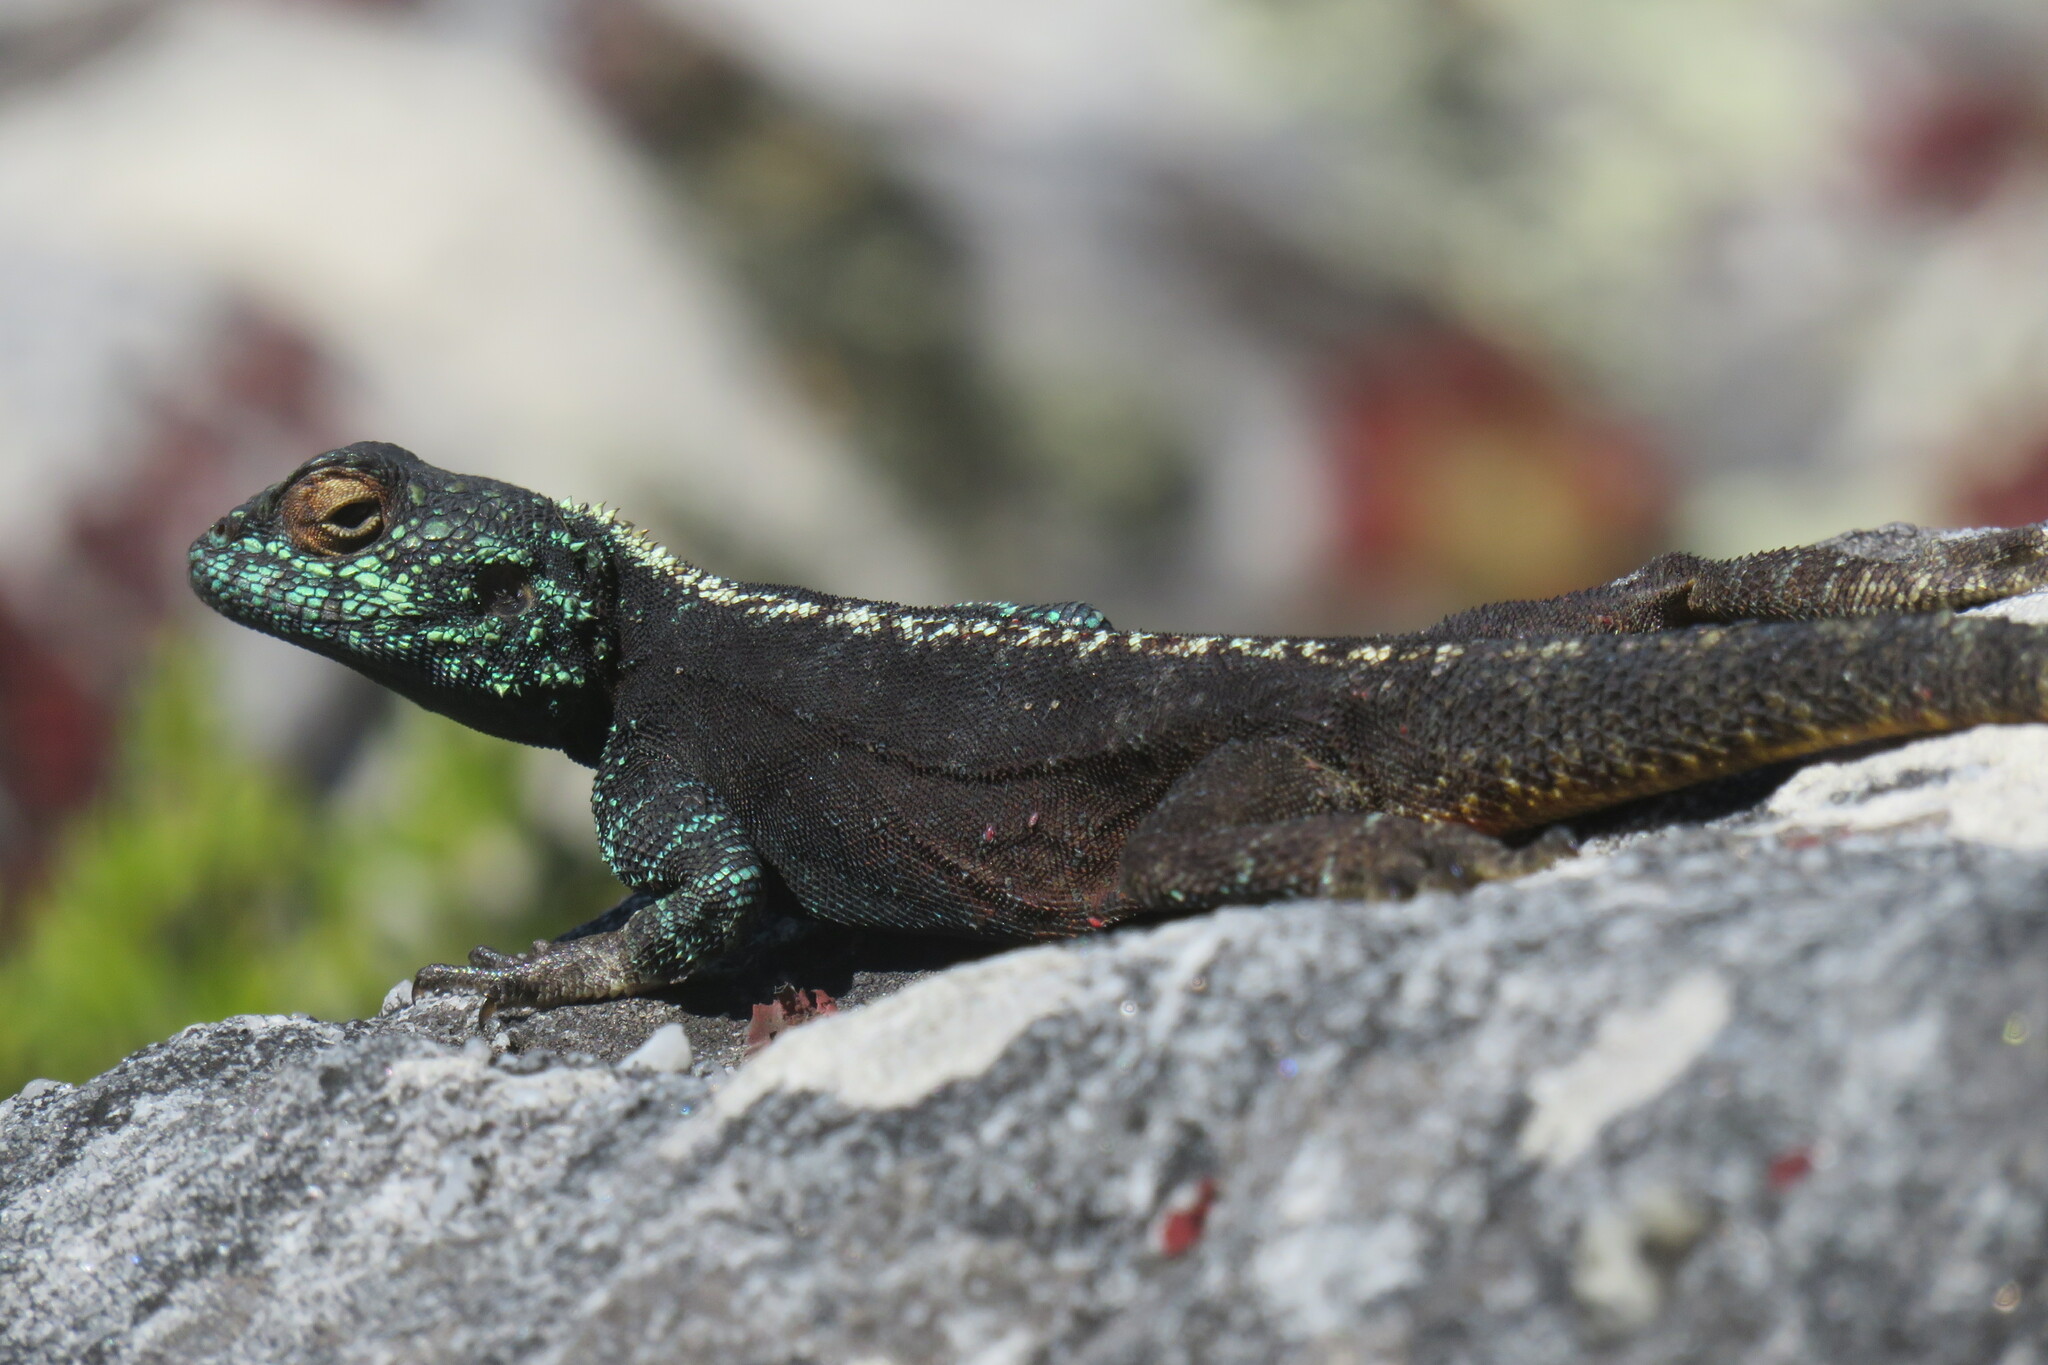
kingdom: Animalia
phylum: Chordata
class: Squamata
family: Agamidae
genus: Agama
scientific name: Agama atra
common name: Southern african rock agama
